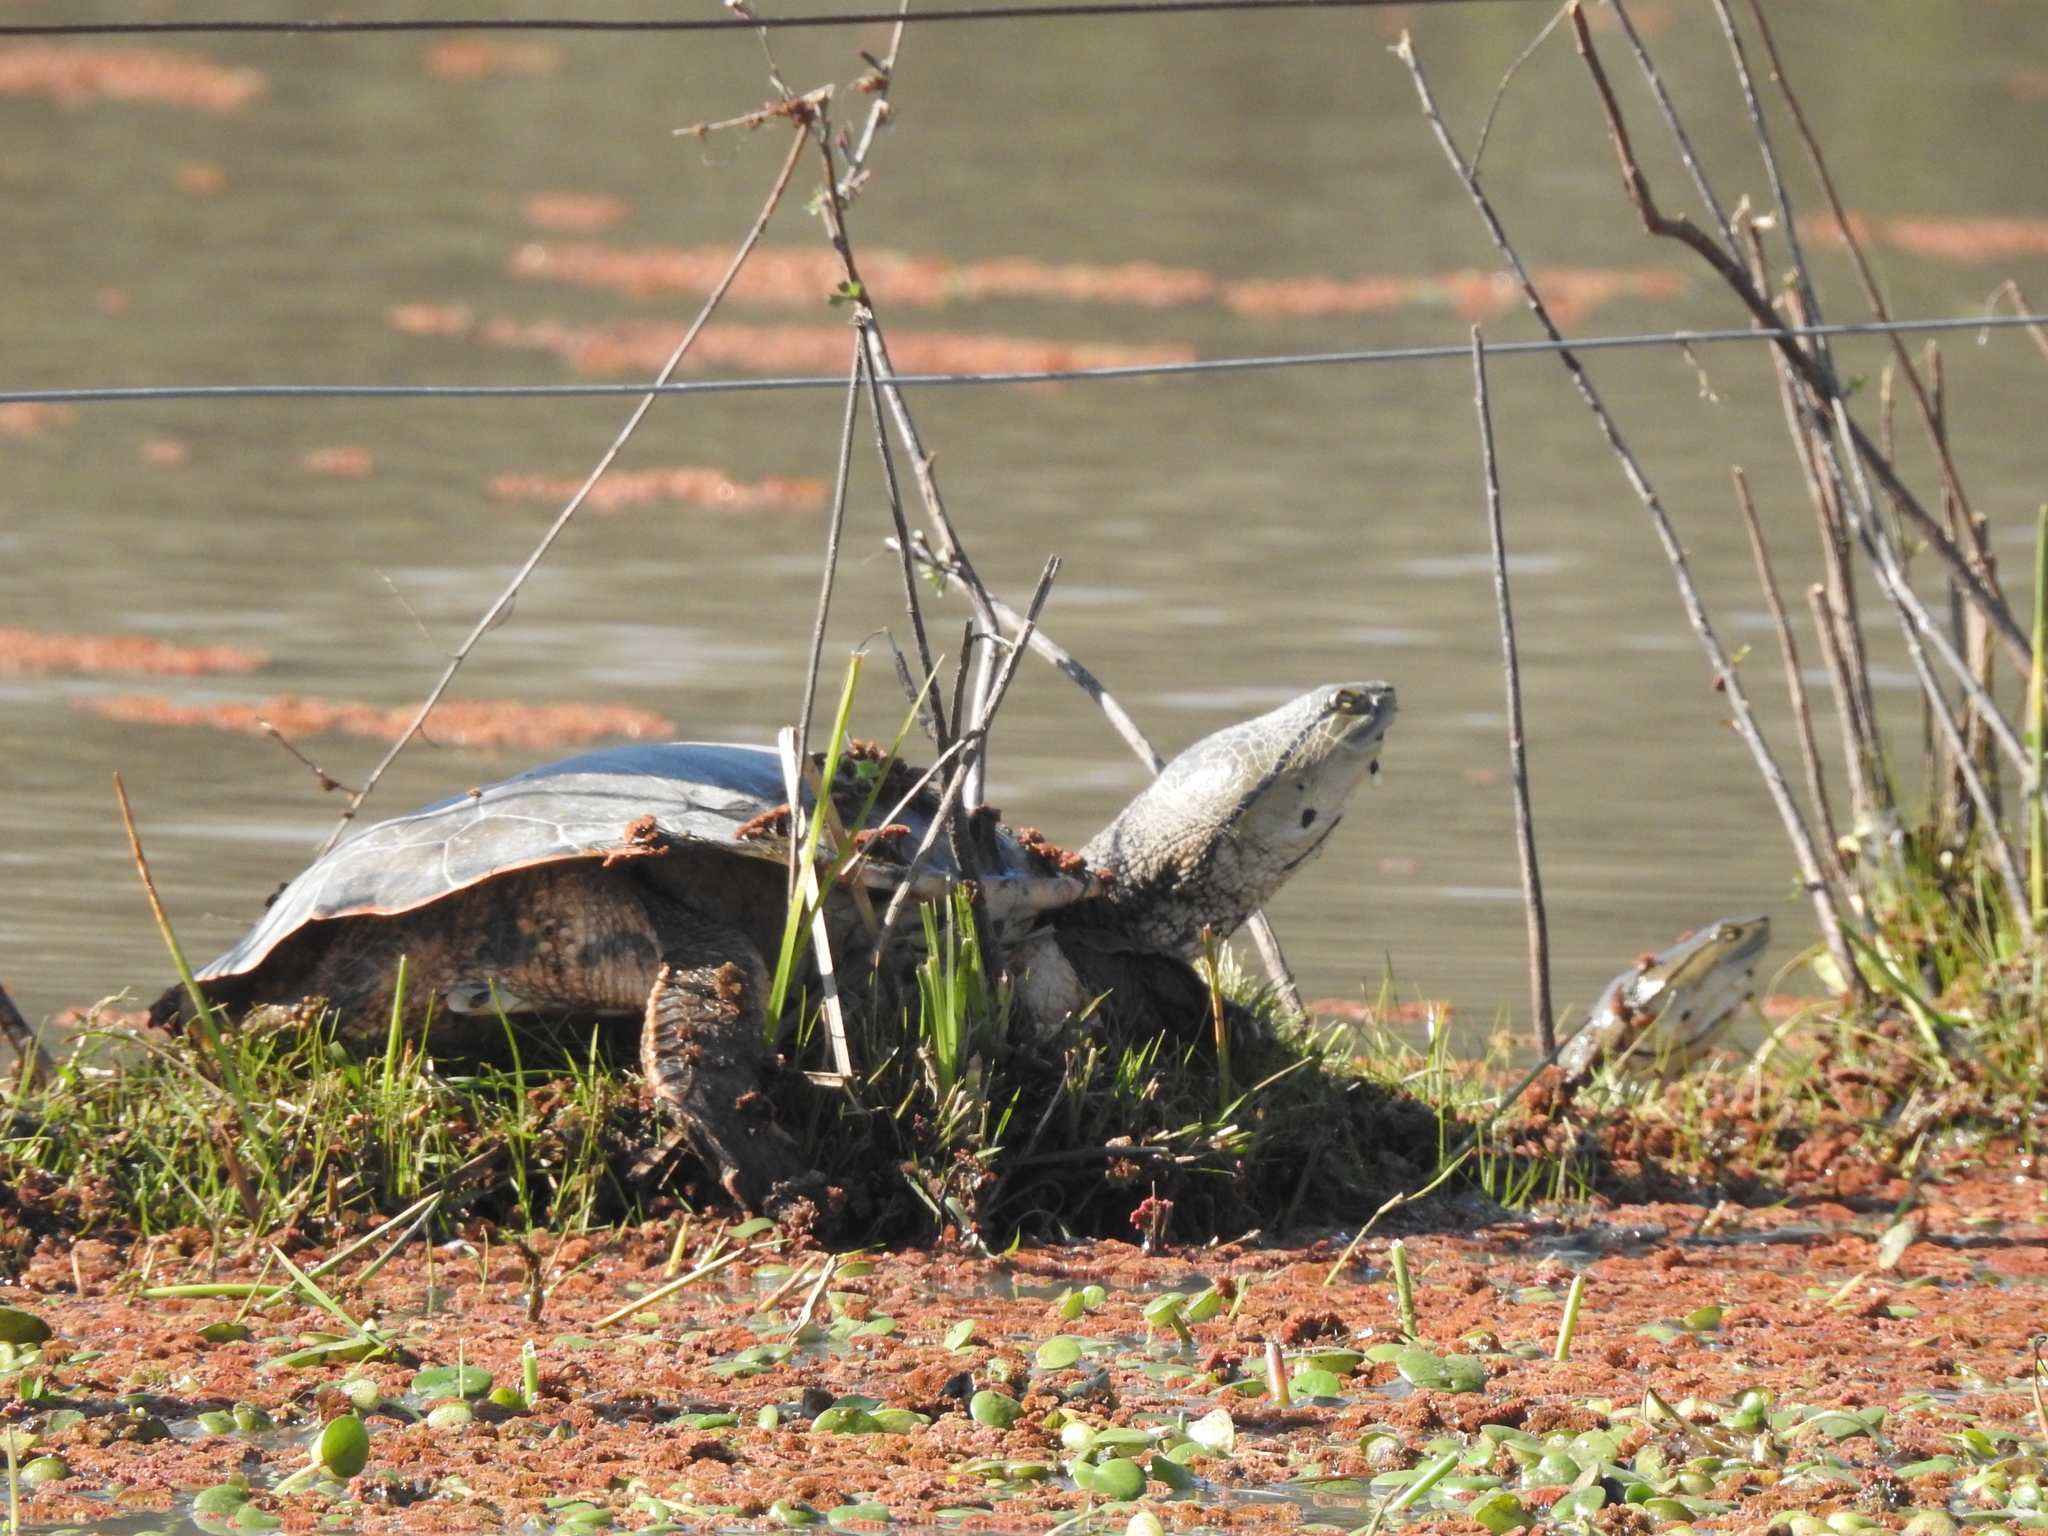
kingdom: Animalia
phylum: Chordata
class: Testudines
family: Chelidae
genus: Phrynops
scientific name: Phrynops hilarii
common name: Side-necked turtle of saint hillaire
